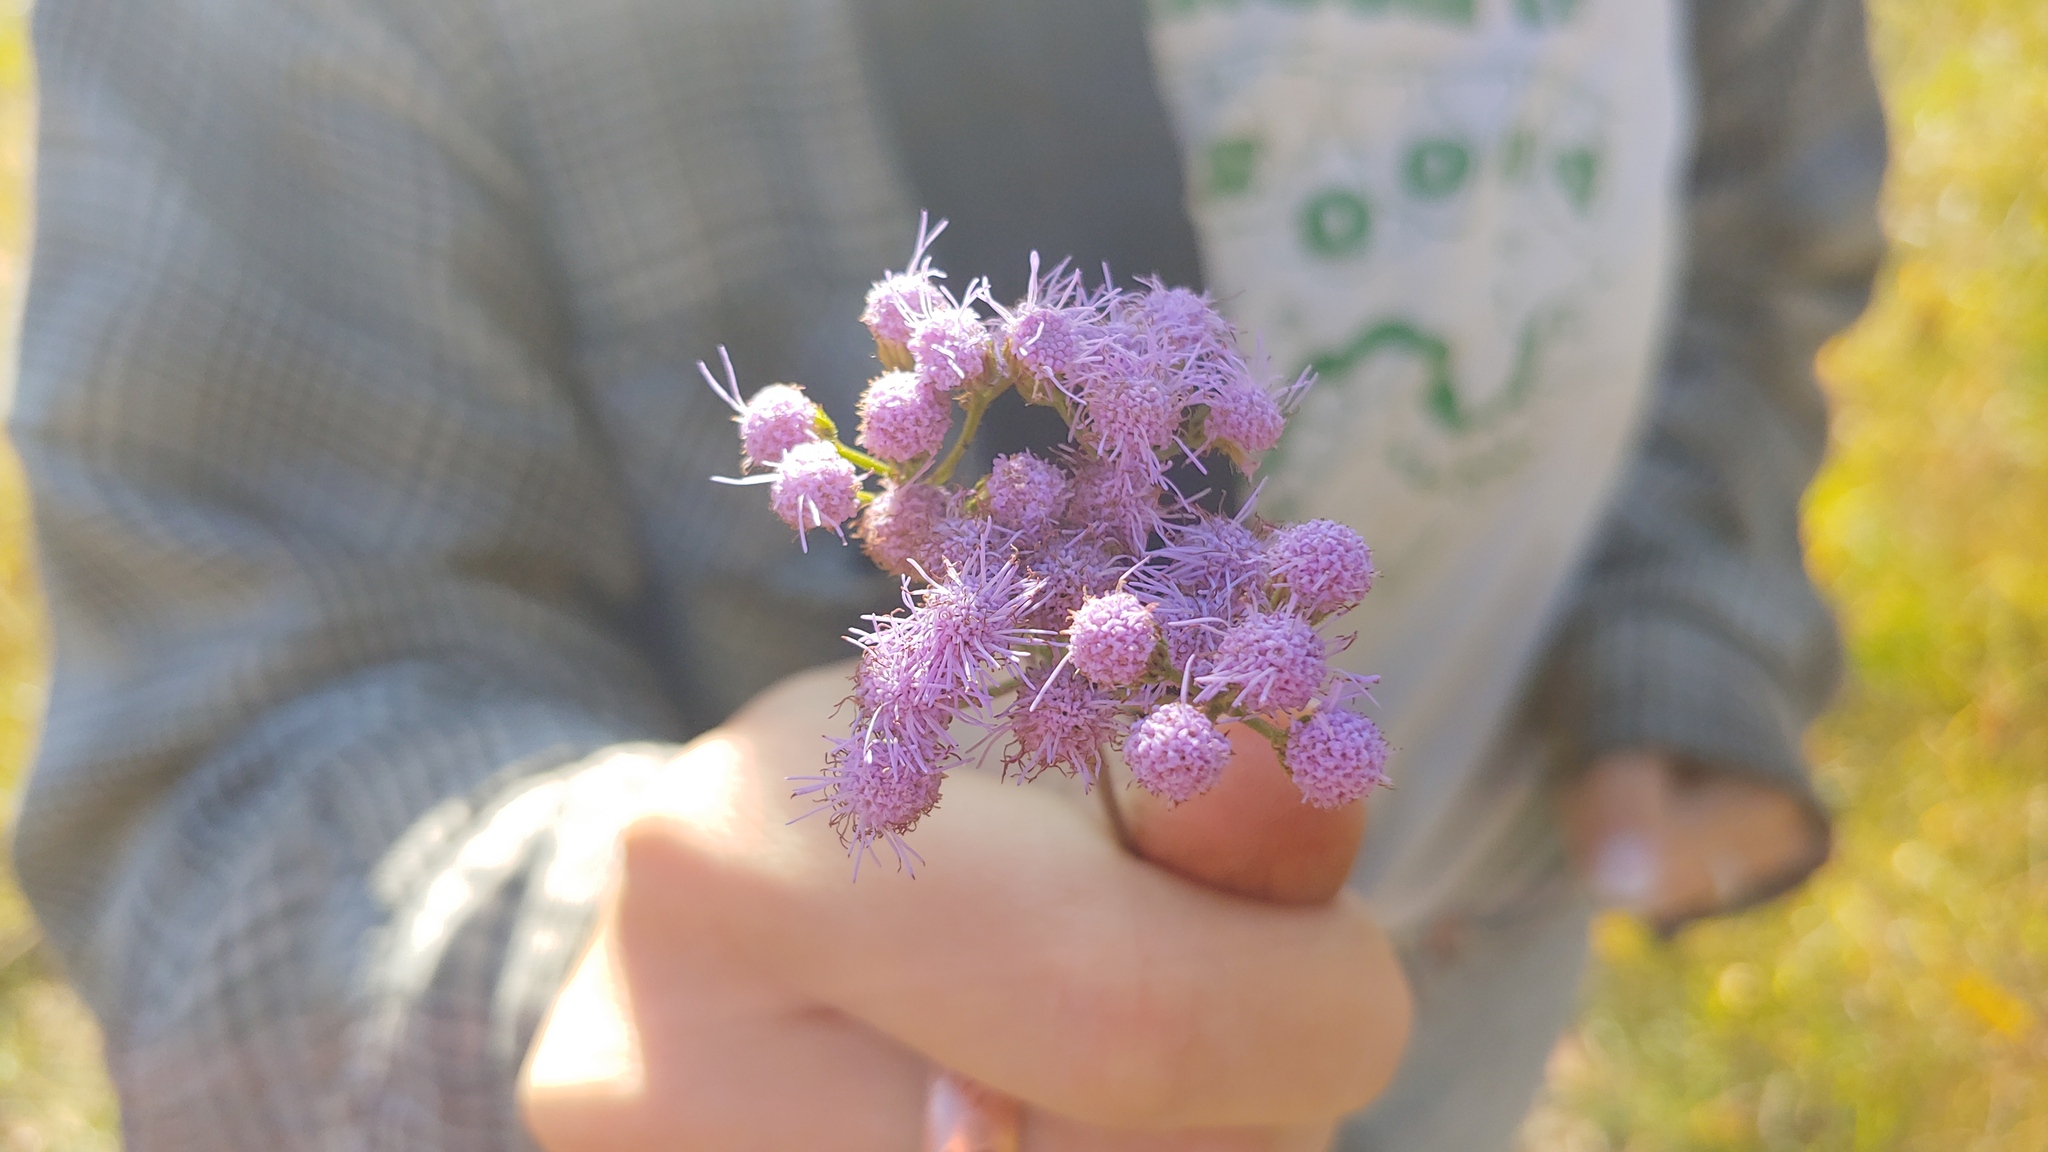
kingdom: Plantae
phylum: Tracheophyta
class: Magnoliopsida
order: Asterales
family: Asteraceae
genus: Conoclinium
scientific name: Conoclinium coelestinum
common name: Blue mistflower
